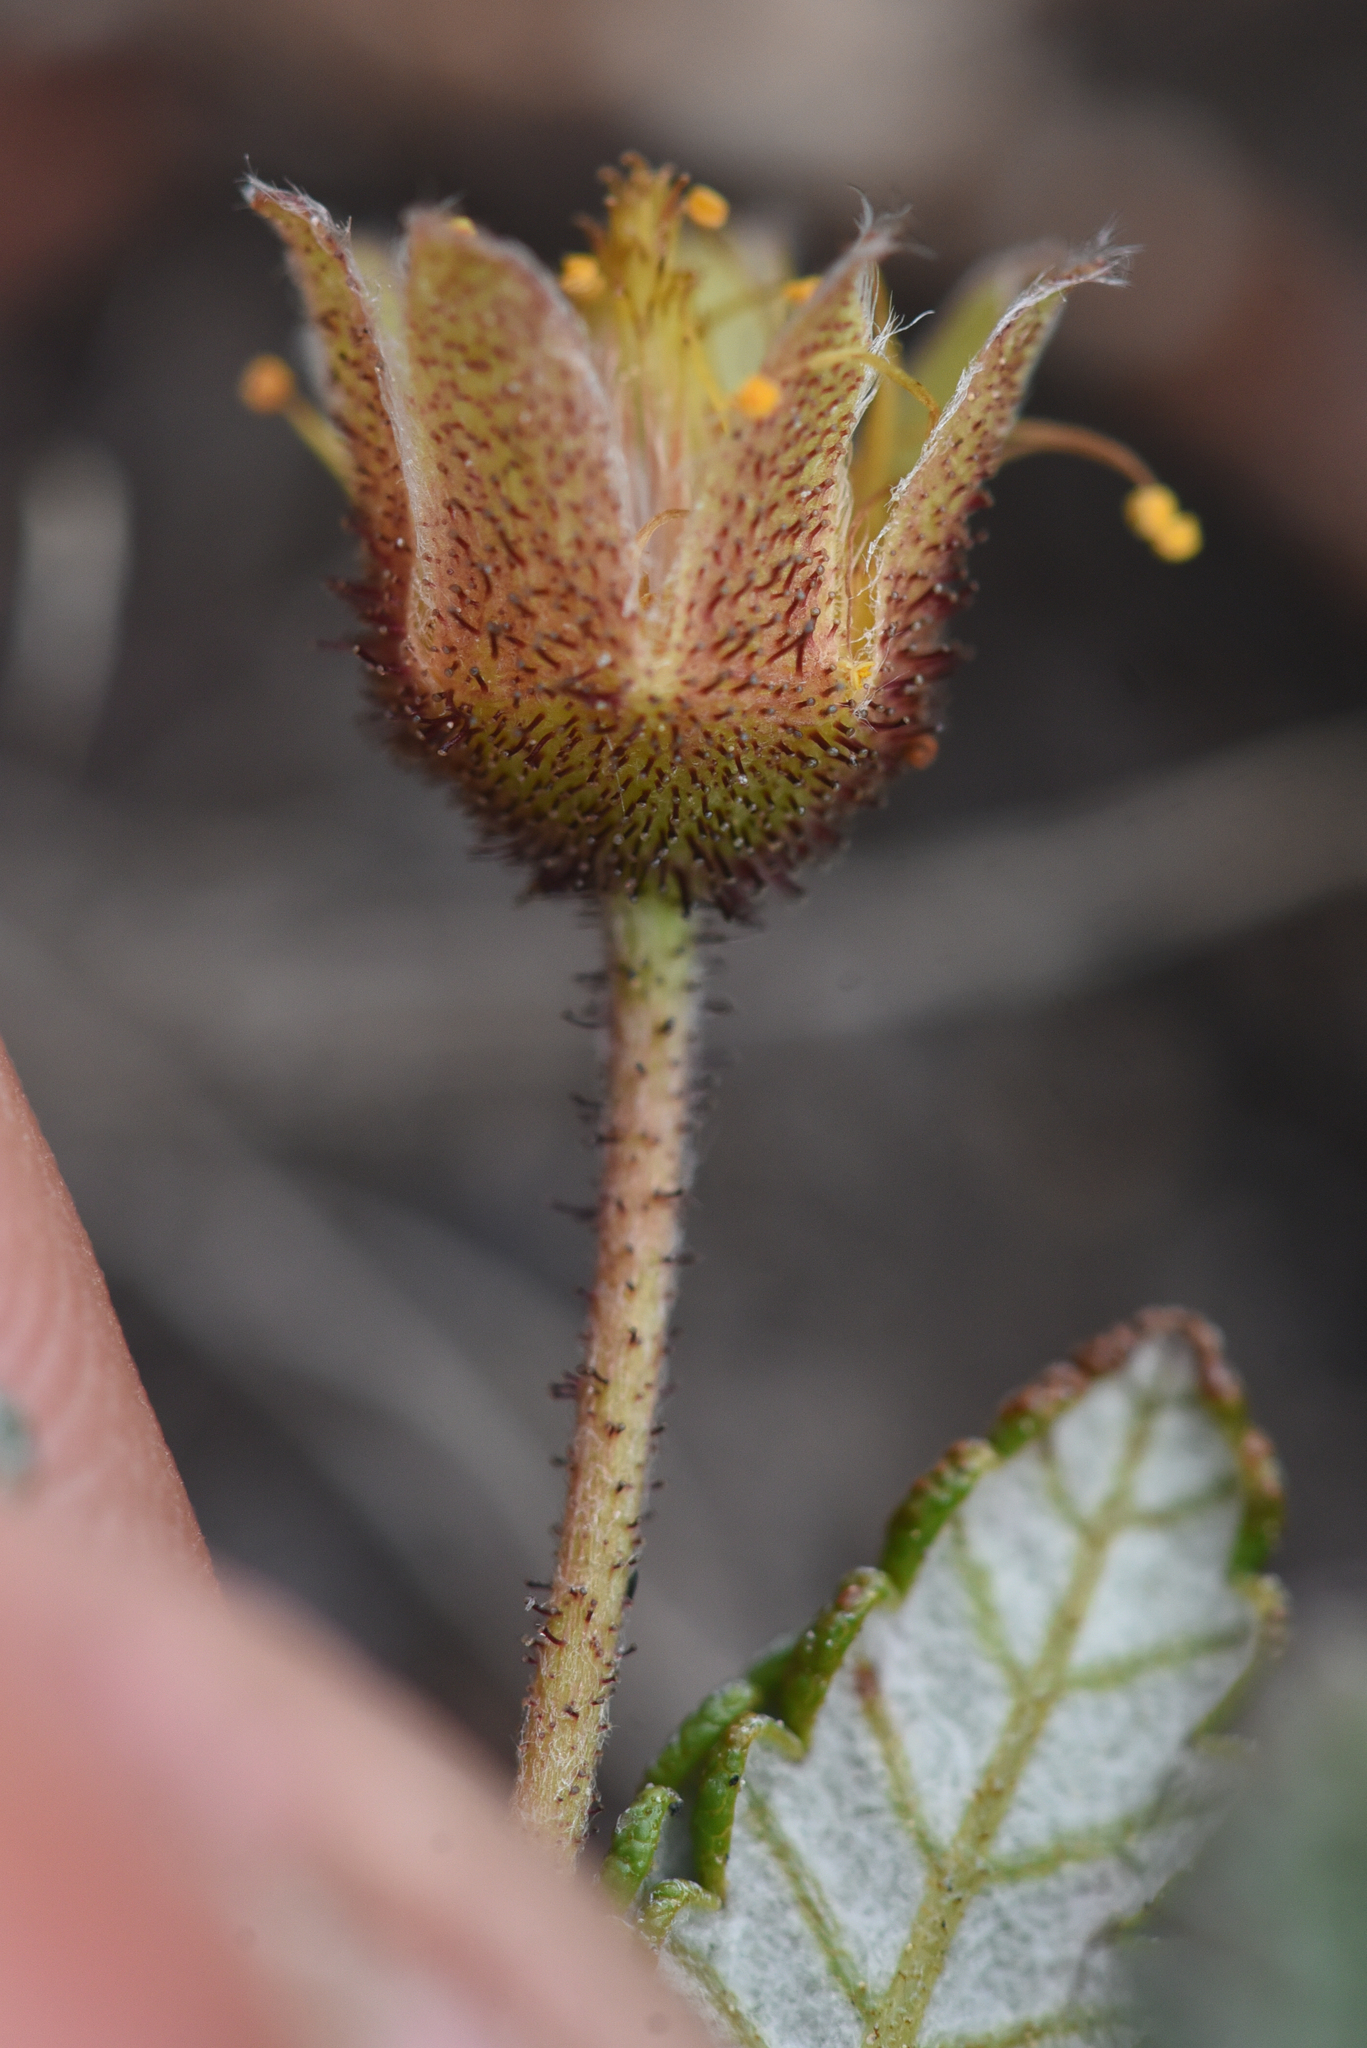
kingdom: Plantae
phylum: Tracheophyta
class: Magnoliopsida
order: Rosales
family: Rosaceae
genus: Dryas
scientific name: Dryas octopetala
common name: Eight-petal mountain-avens
